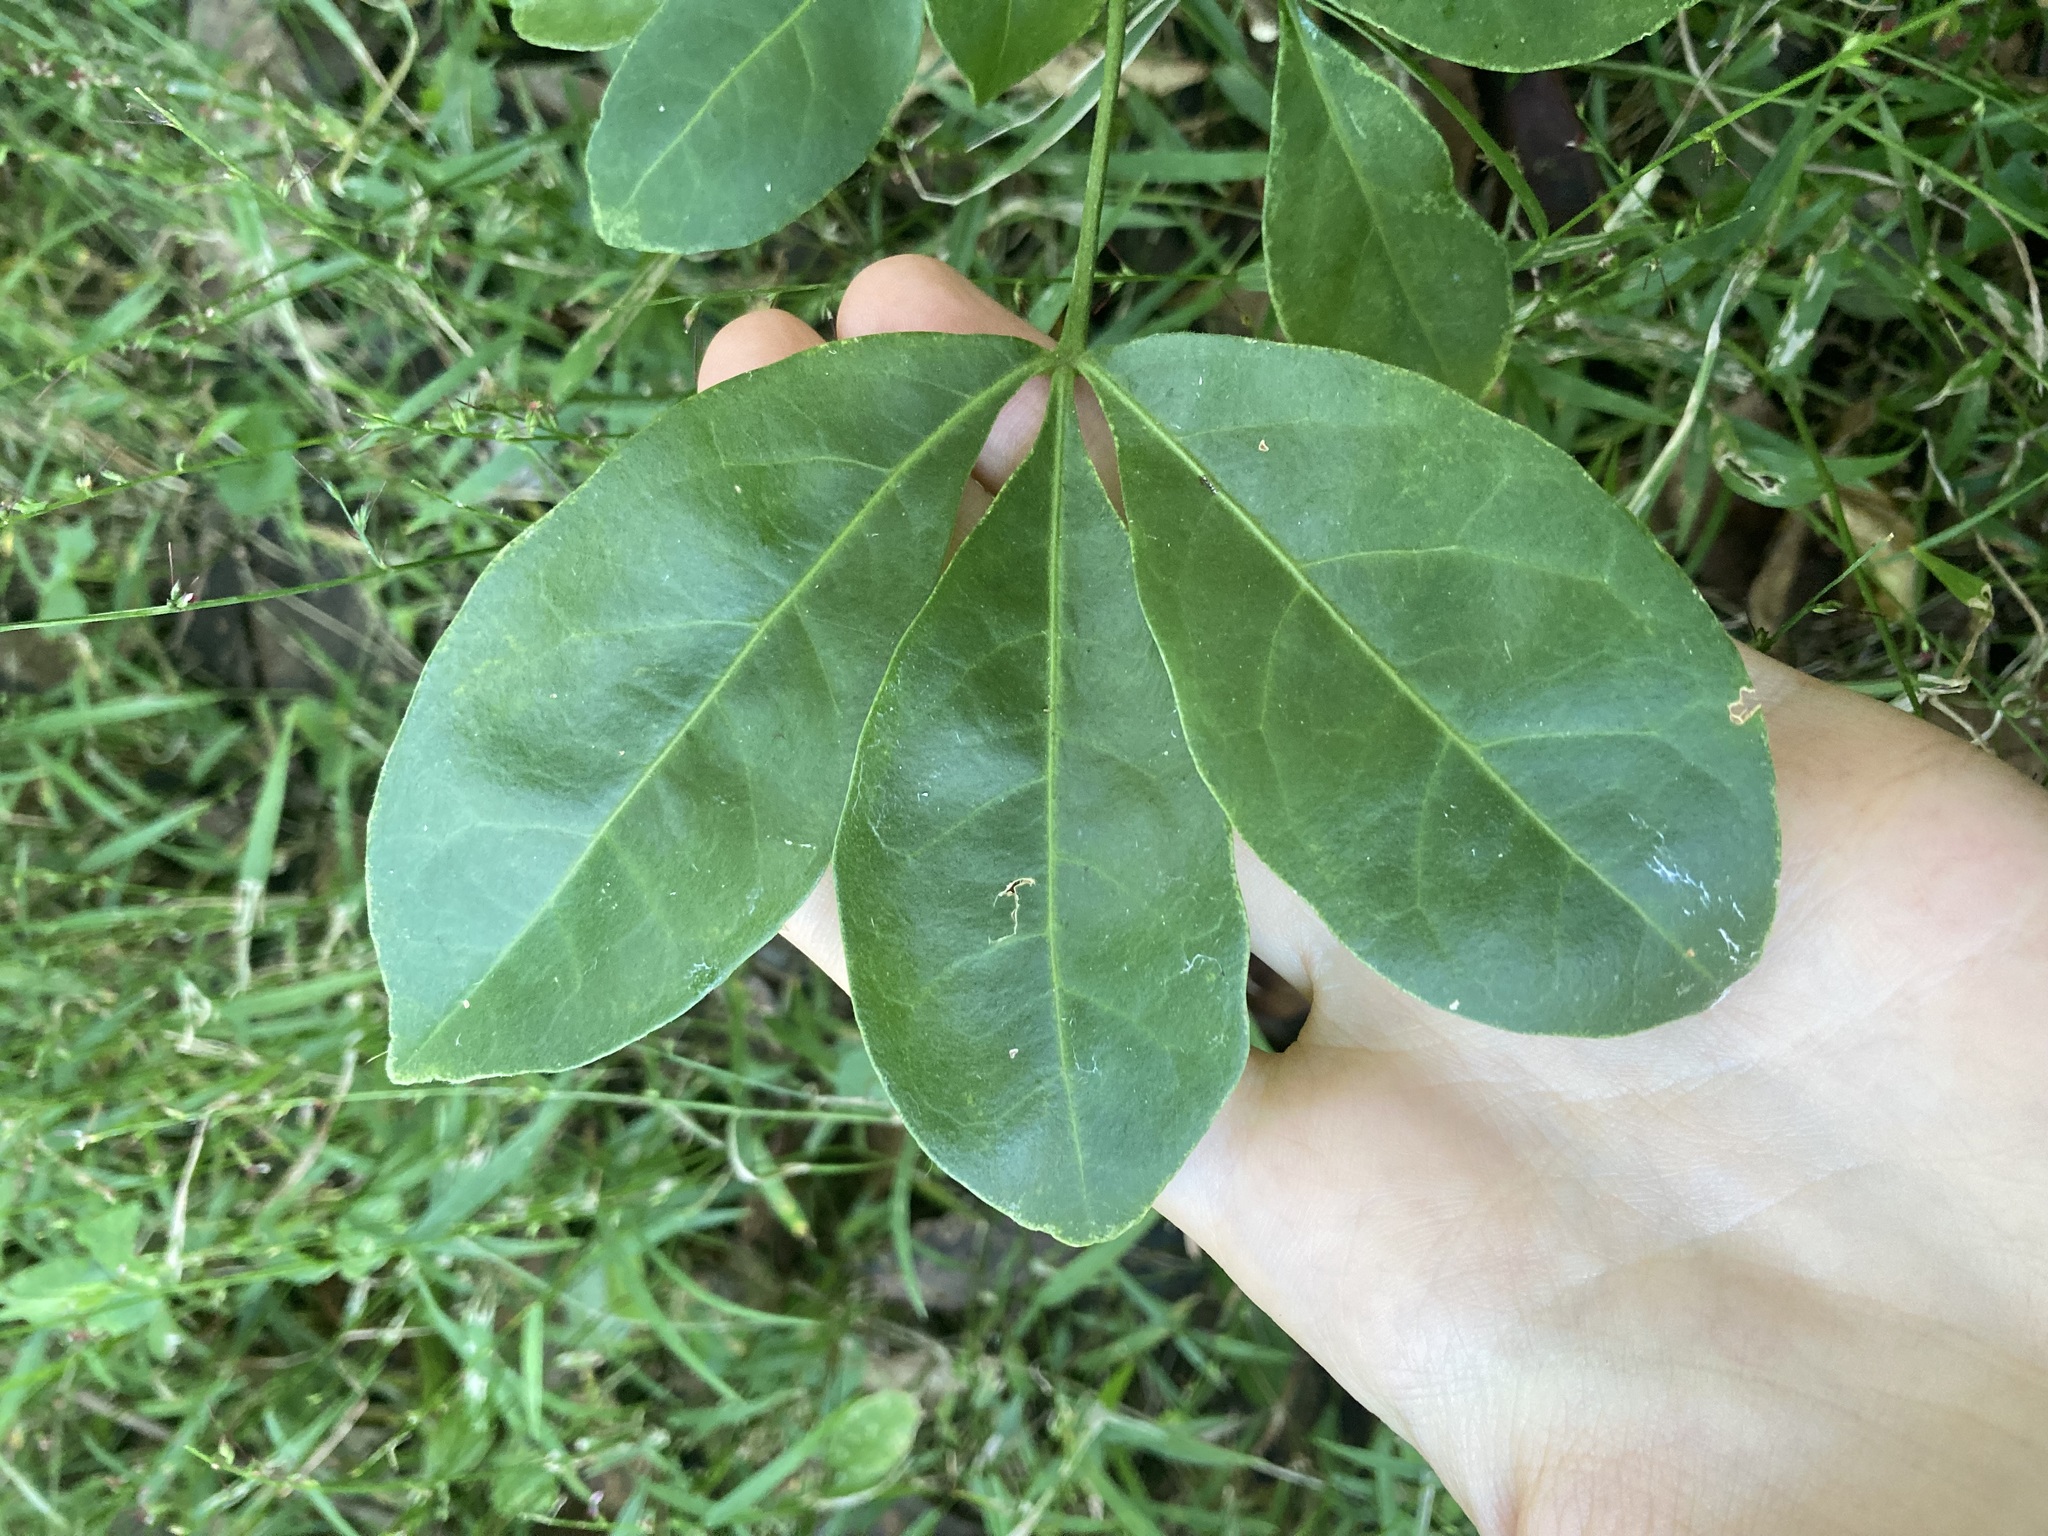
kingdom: Plantae
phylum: Tracheophyta
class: Magnoliopsida
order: Sapindales
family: Rutaceae
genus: Melicope
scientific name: Melicope micrococca
